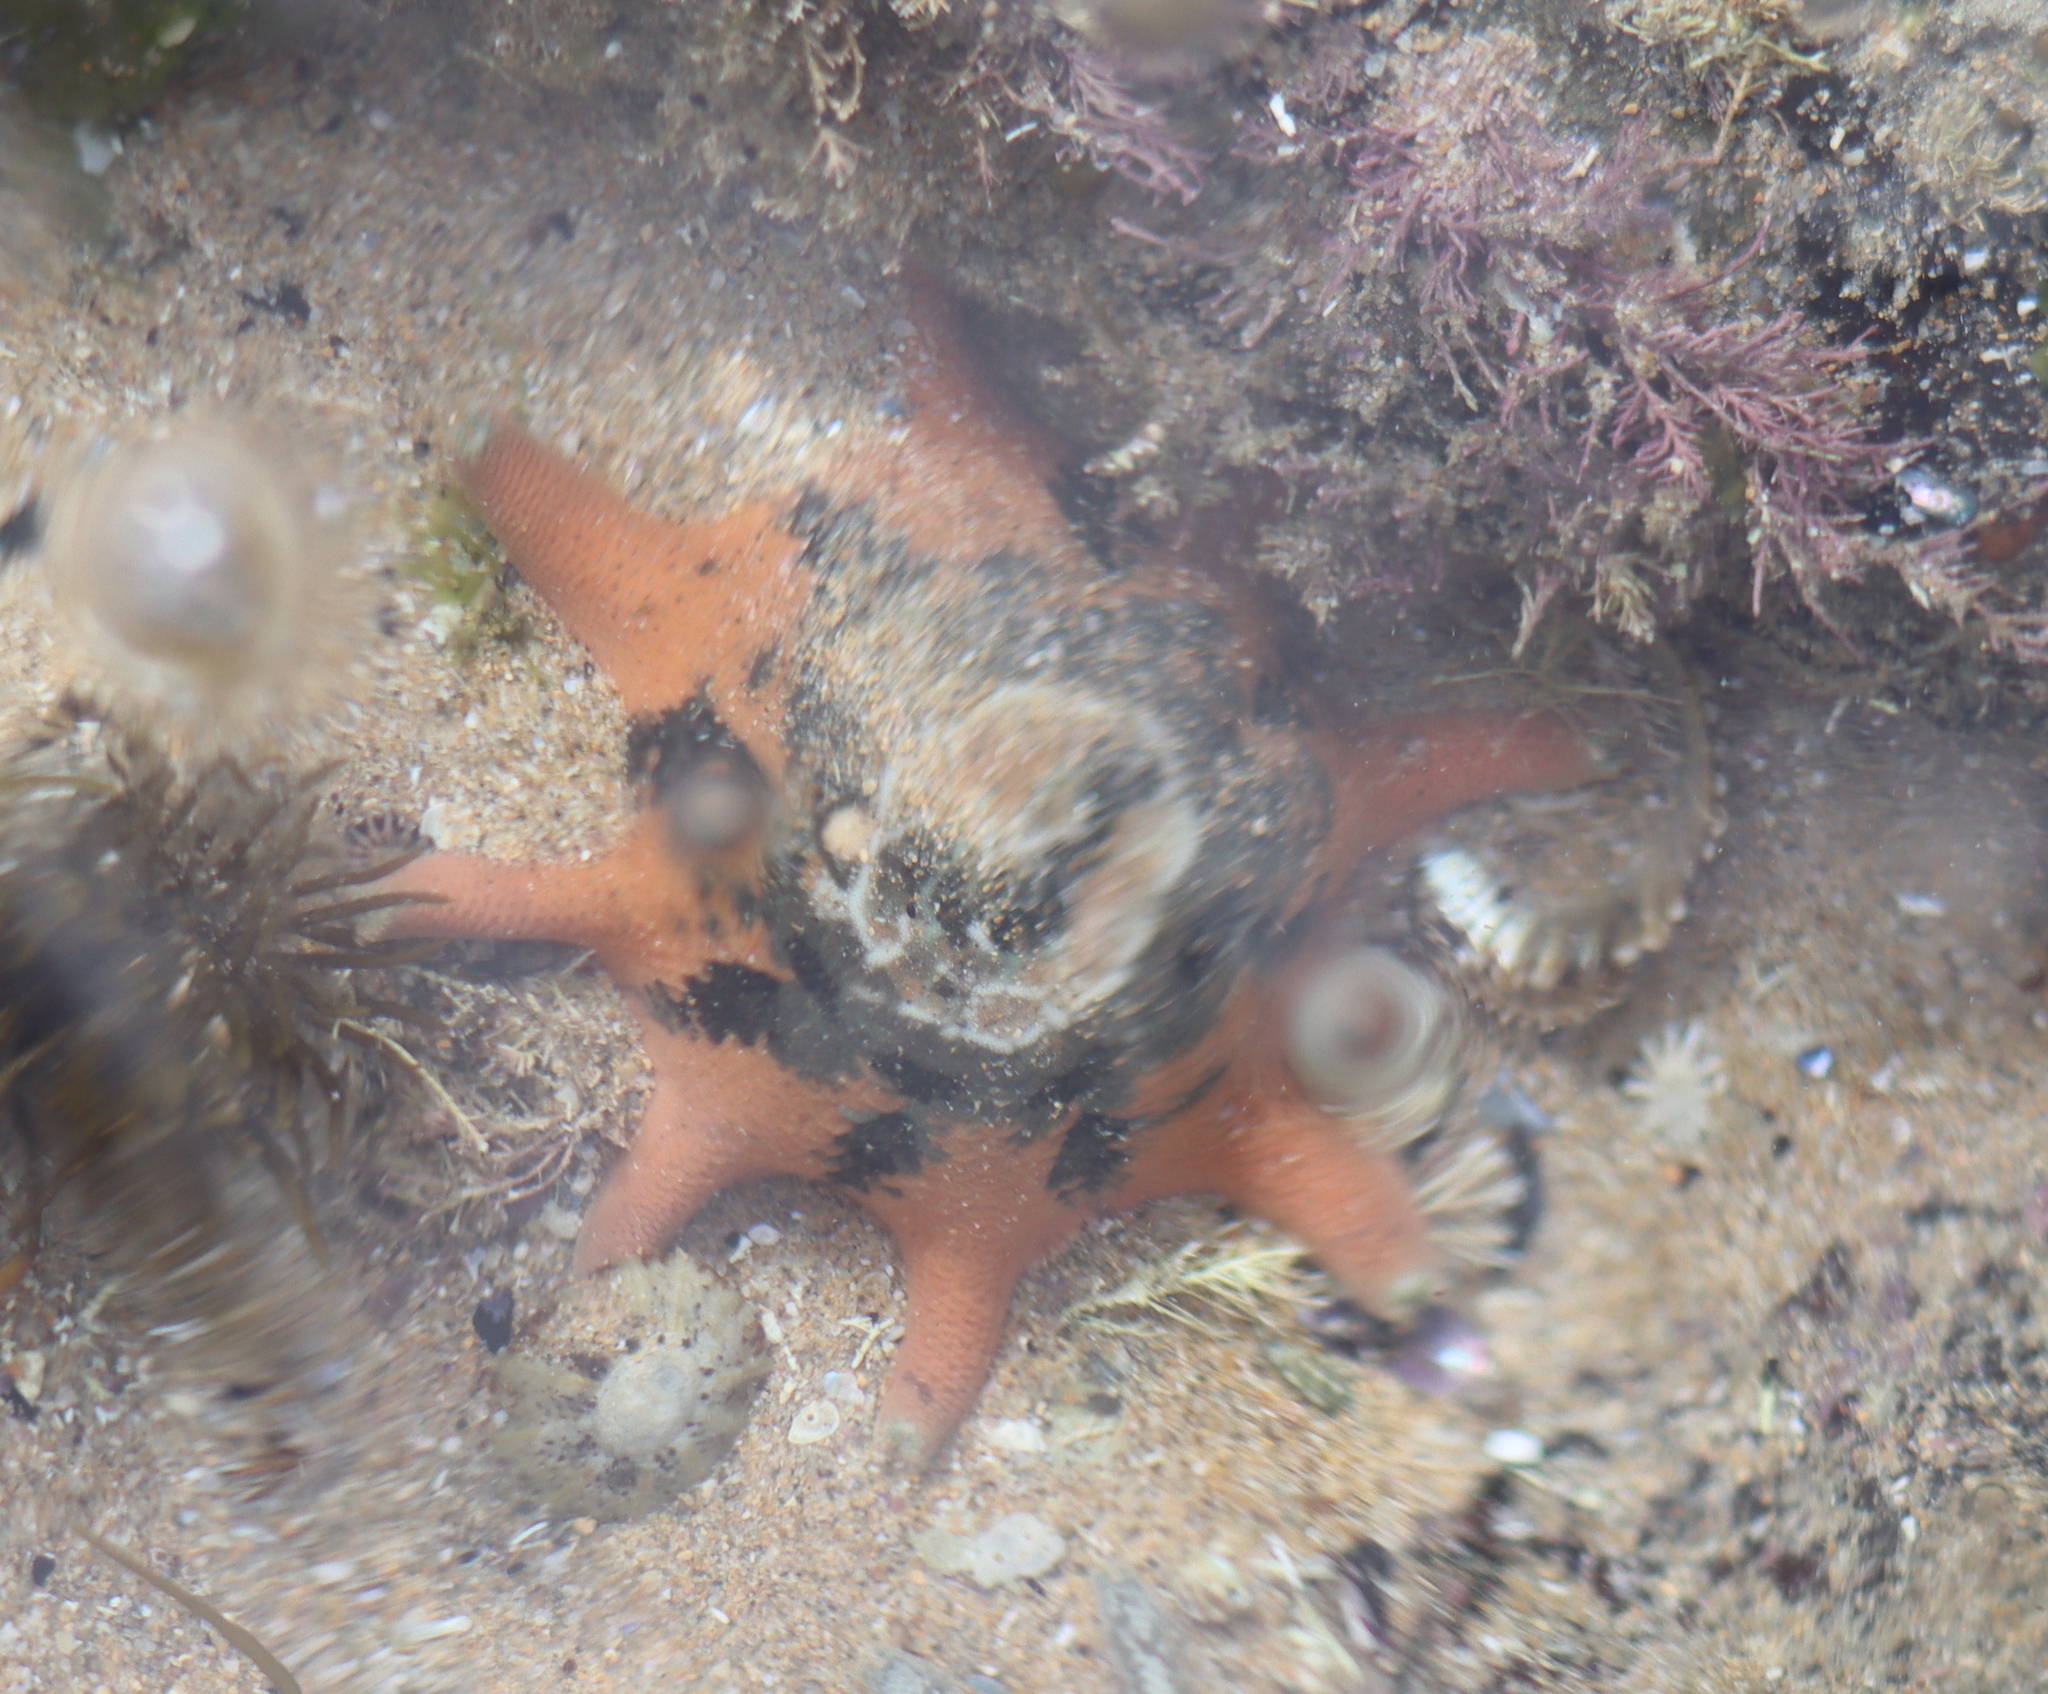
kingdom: Animalia
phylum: Echinodermata
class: Asteroidea
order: Valvatida
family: Asterinidae
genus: Meridiastra
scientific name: Meridiastra calcar
